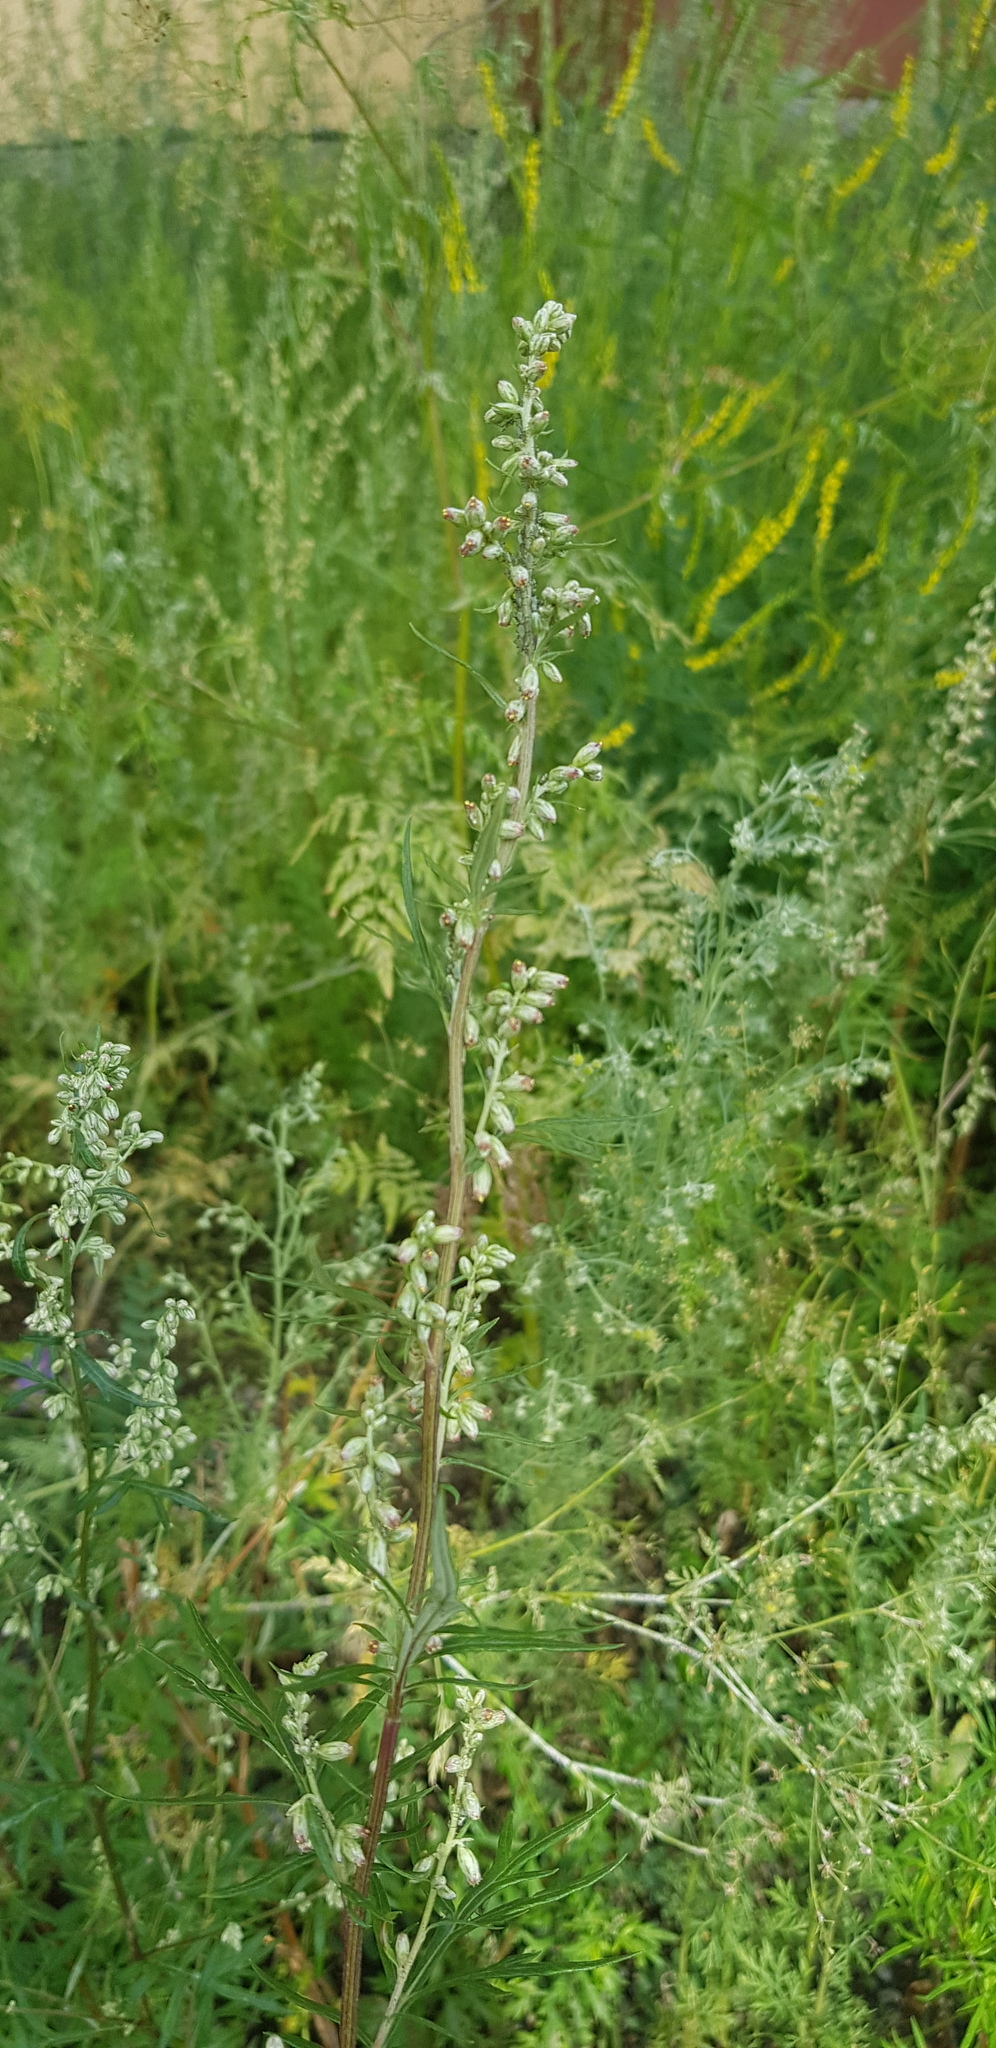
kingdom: Plantae
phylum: Tracheophyta
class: Magnoliopsida
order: Asterales
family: Asteraceae
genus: Artemisia
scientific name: Artemisia vulgaris
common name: Mugwort
